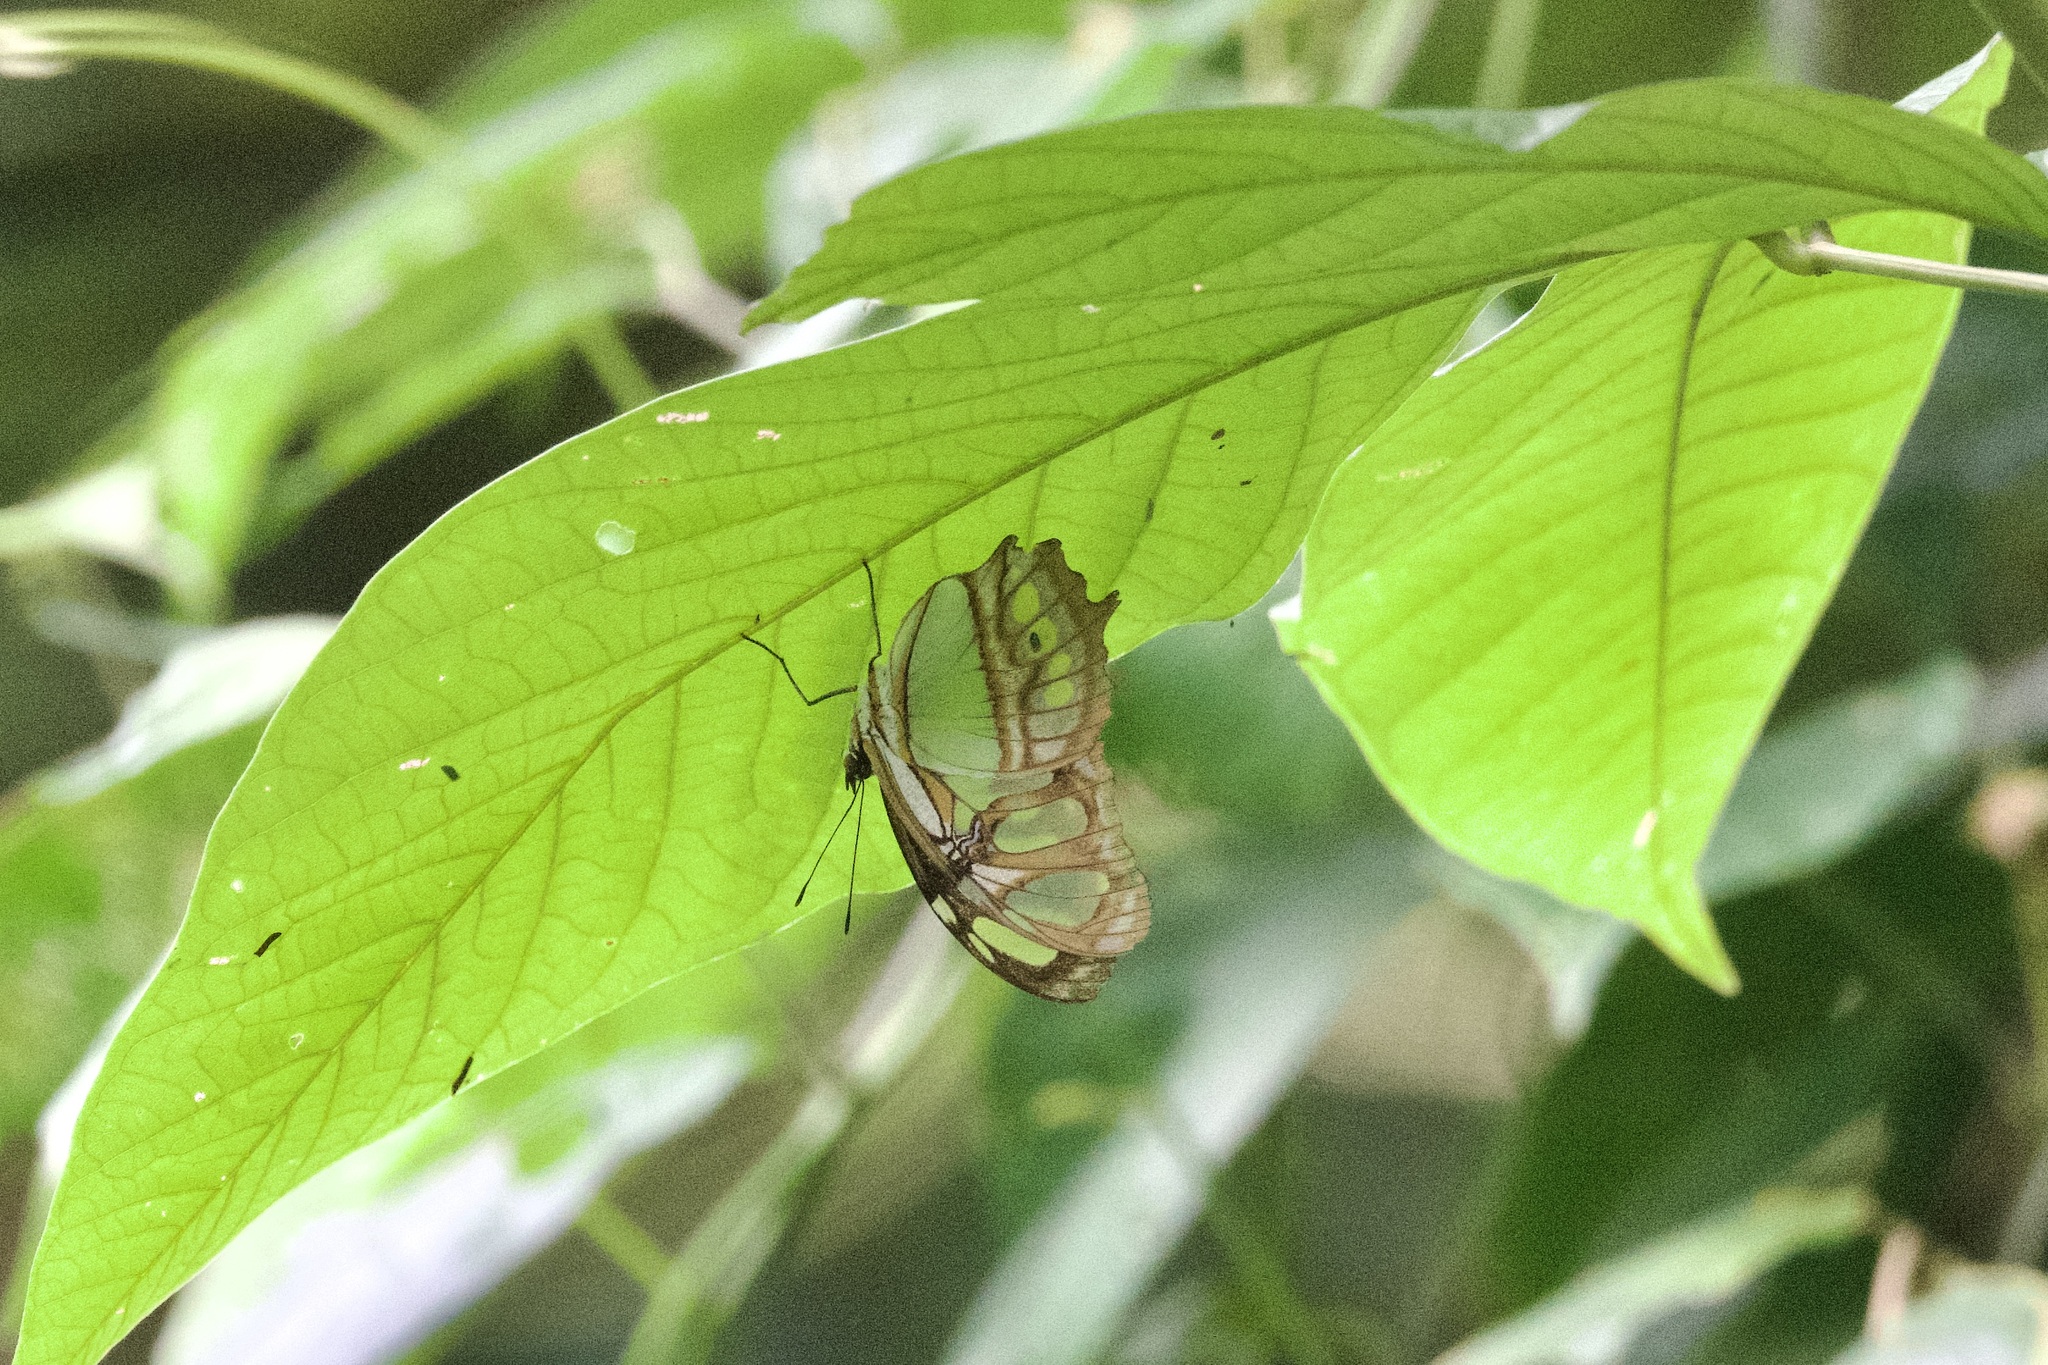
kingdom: Animalia
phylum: Arthropoda
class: Insecta
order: Lepidoptera
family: Nymphalidae
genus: Siproeta
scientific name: Siproeta stelenes
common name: Malachite
